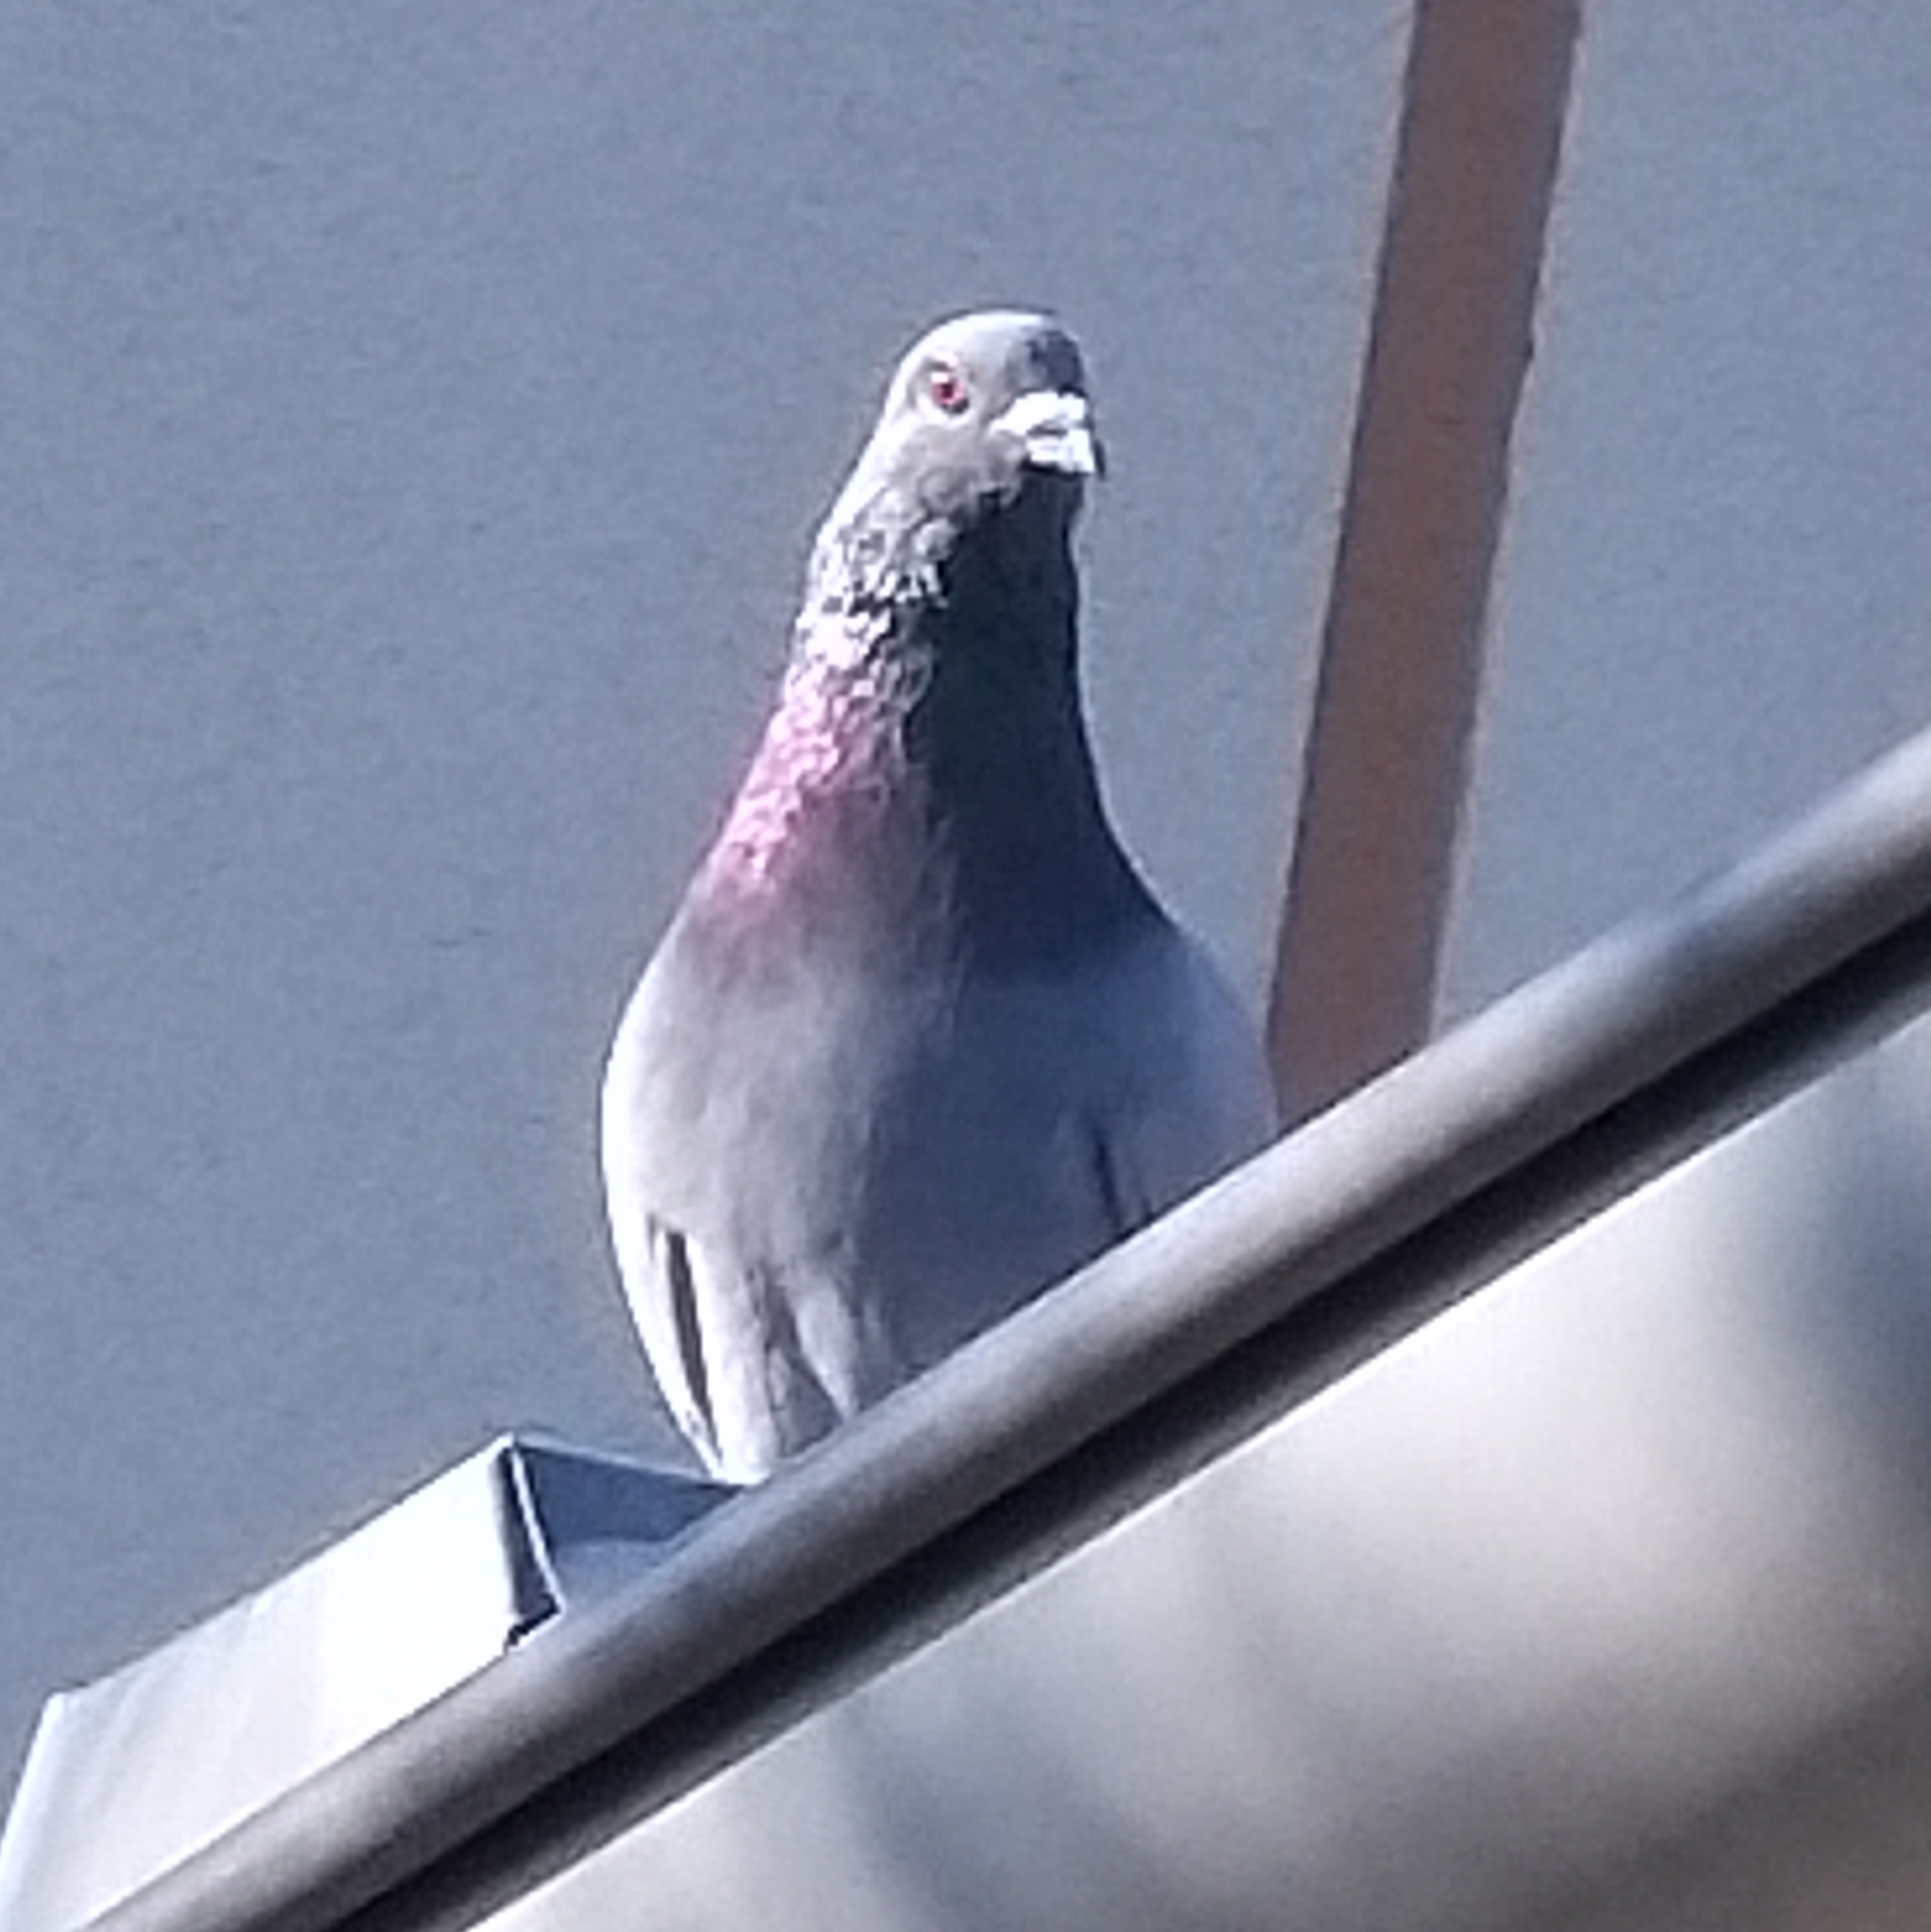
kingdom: Animalia
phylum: Chordata
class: Aves
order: Columbiformes
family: Columbidae
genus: Columba
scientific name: Columba livia
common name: Rock pigeon
